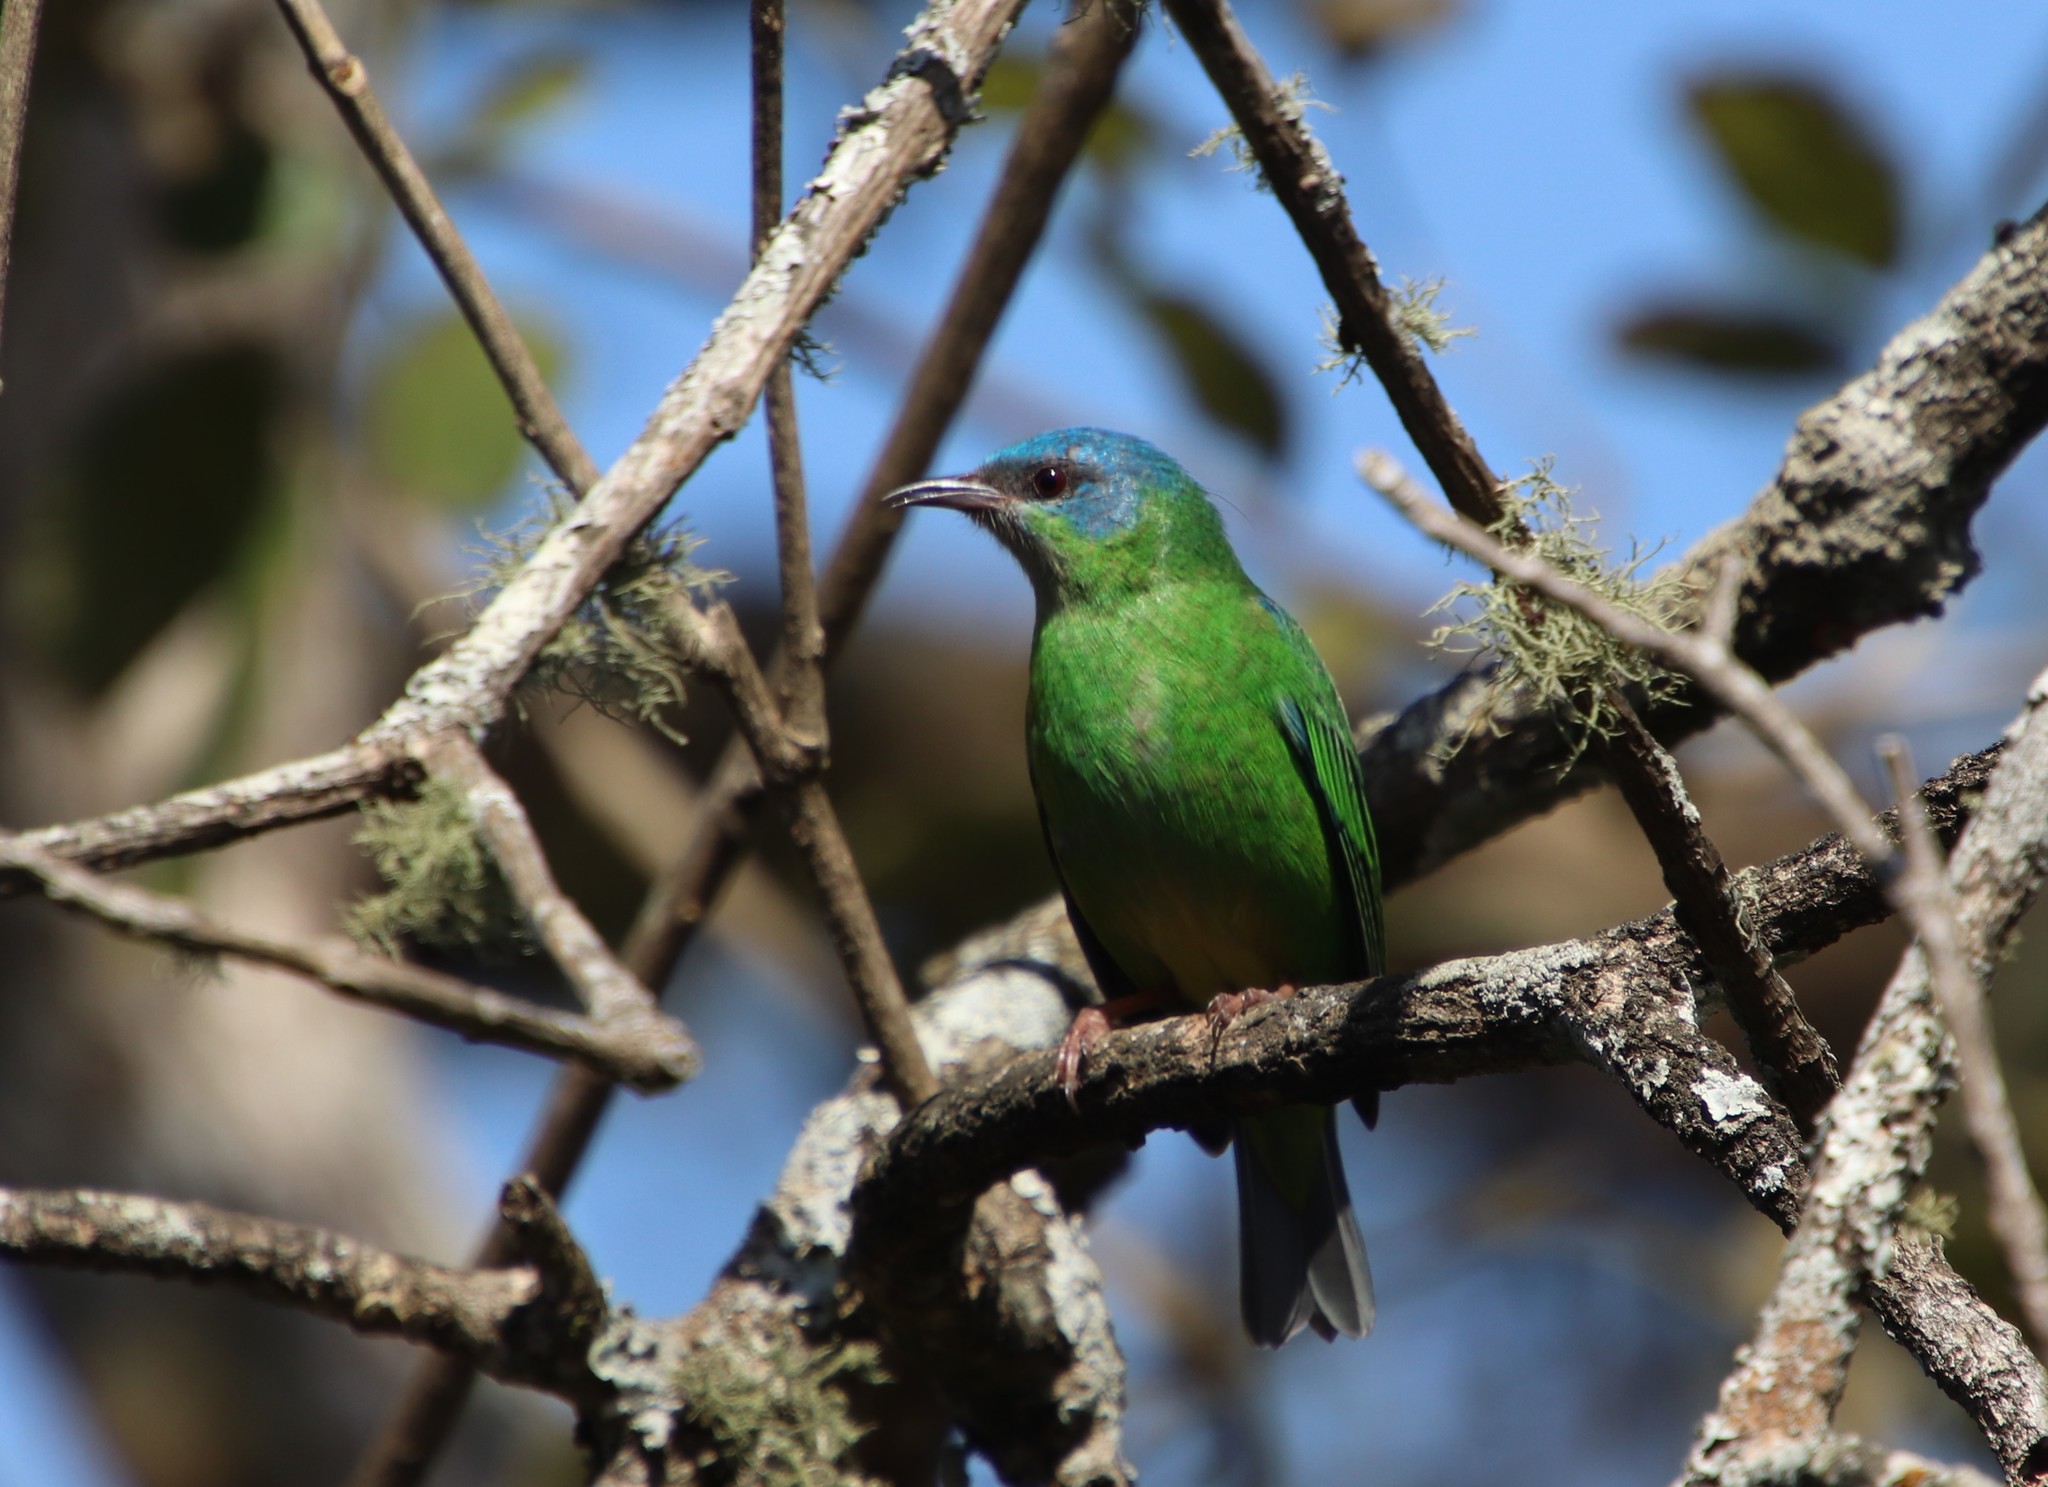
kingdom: Animalia
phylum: Chordata
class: Aves
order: Passeriformes
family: Thraupidae
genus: Dacnis
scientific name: Dacnis cayana
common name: Blue dacnis
